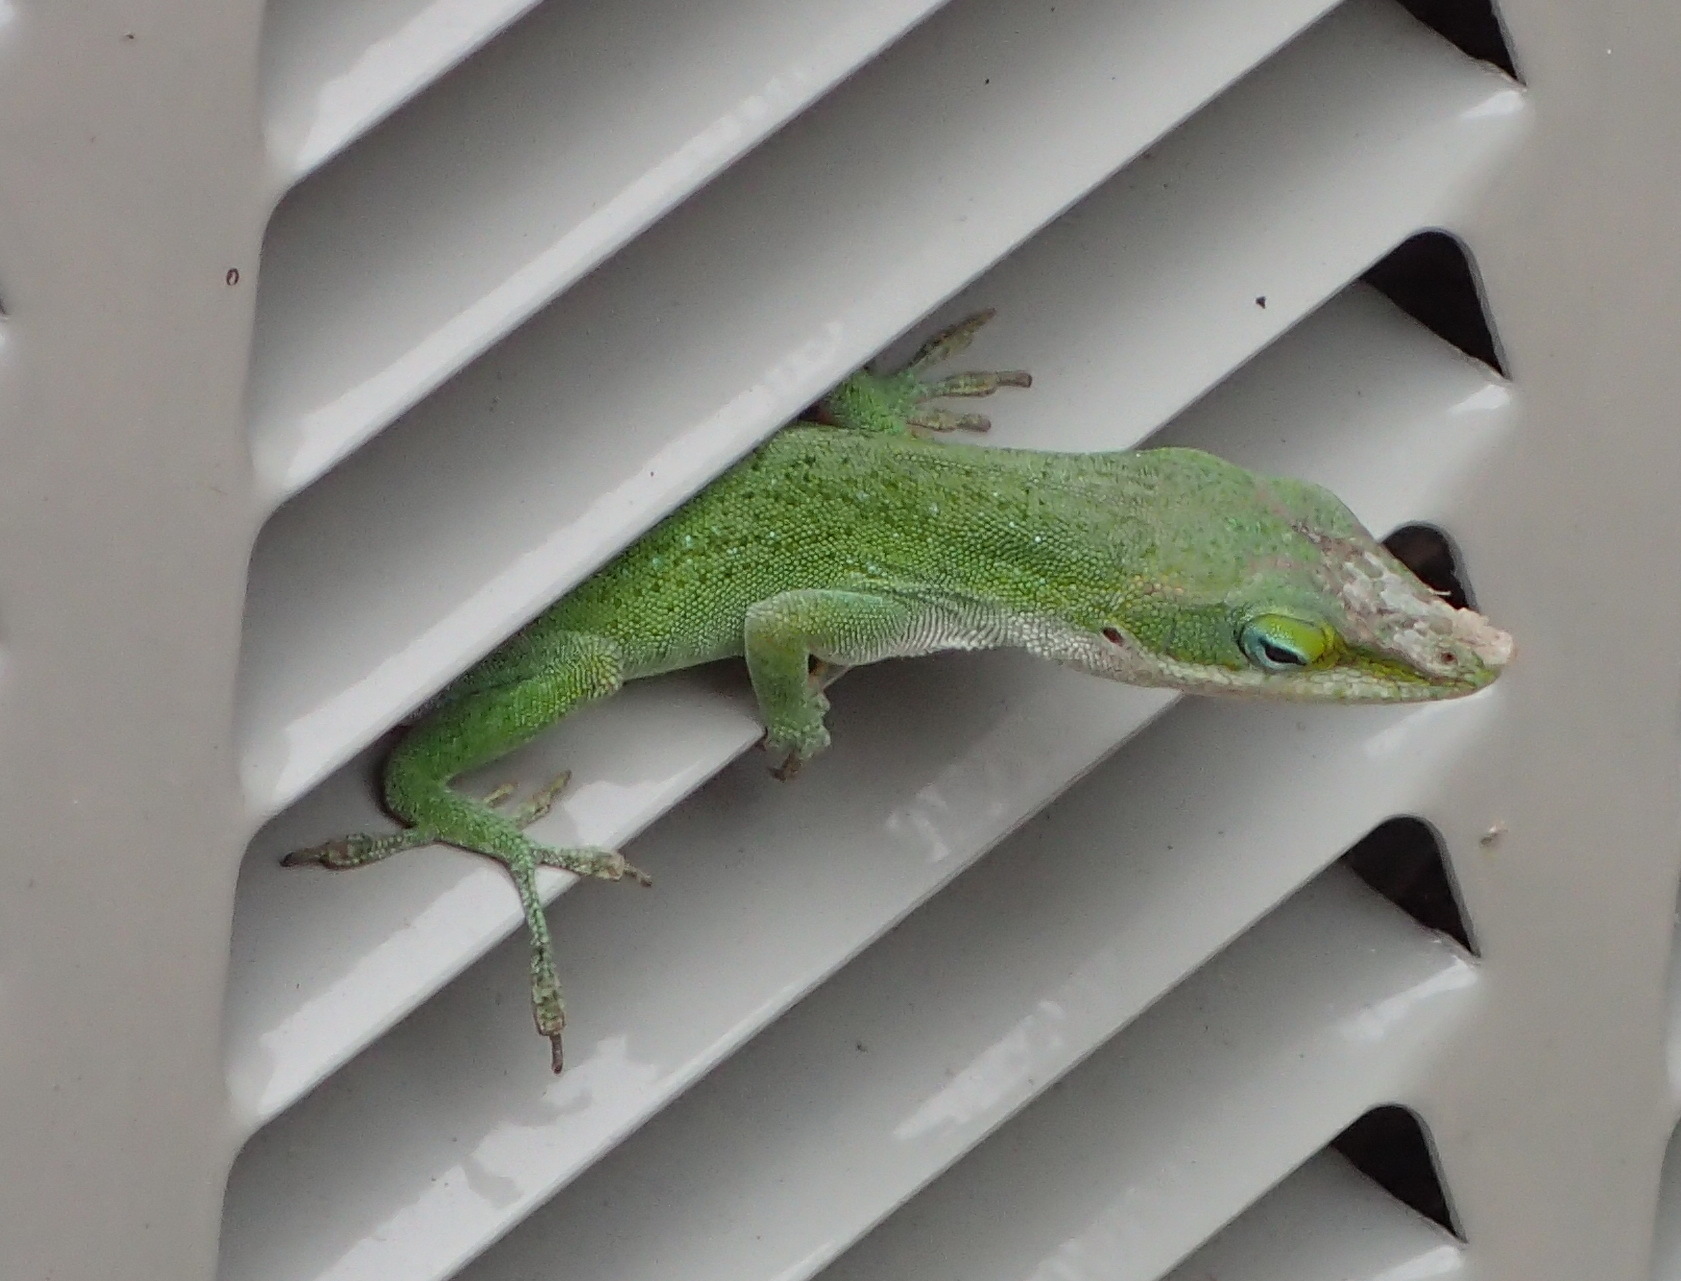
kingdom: Animalia
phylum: Chordata
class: Squamata
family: Dactyloidae
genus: Anolis
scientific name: Anolis carolinensis
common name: Green anole
